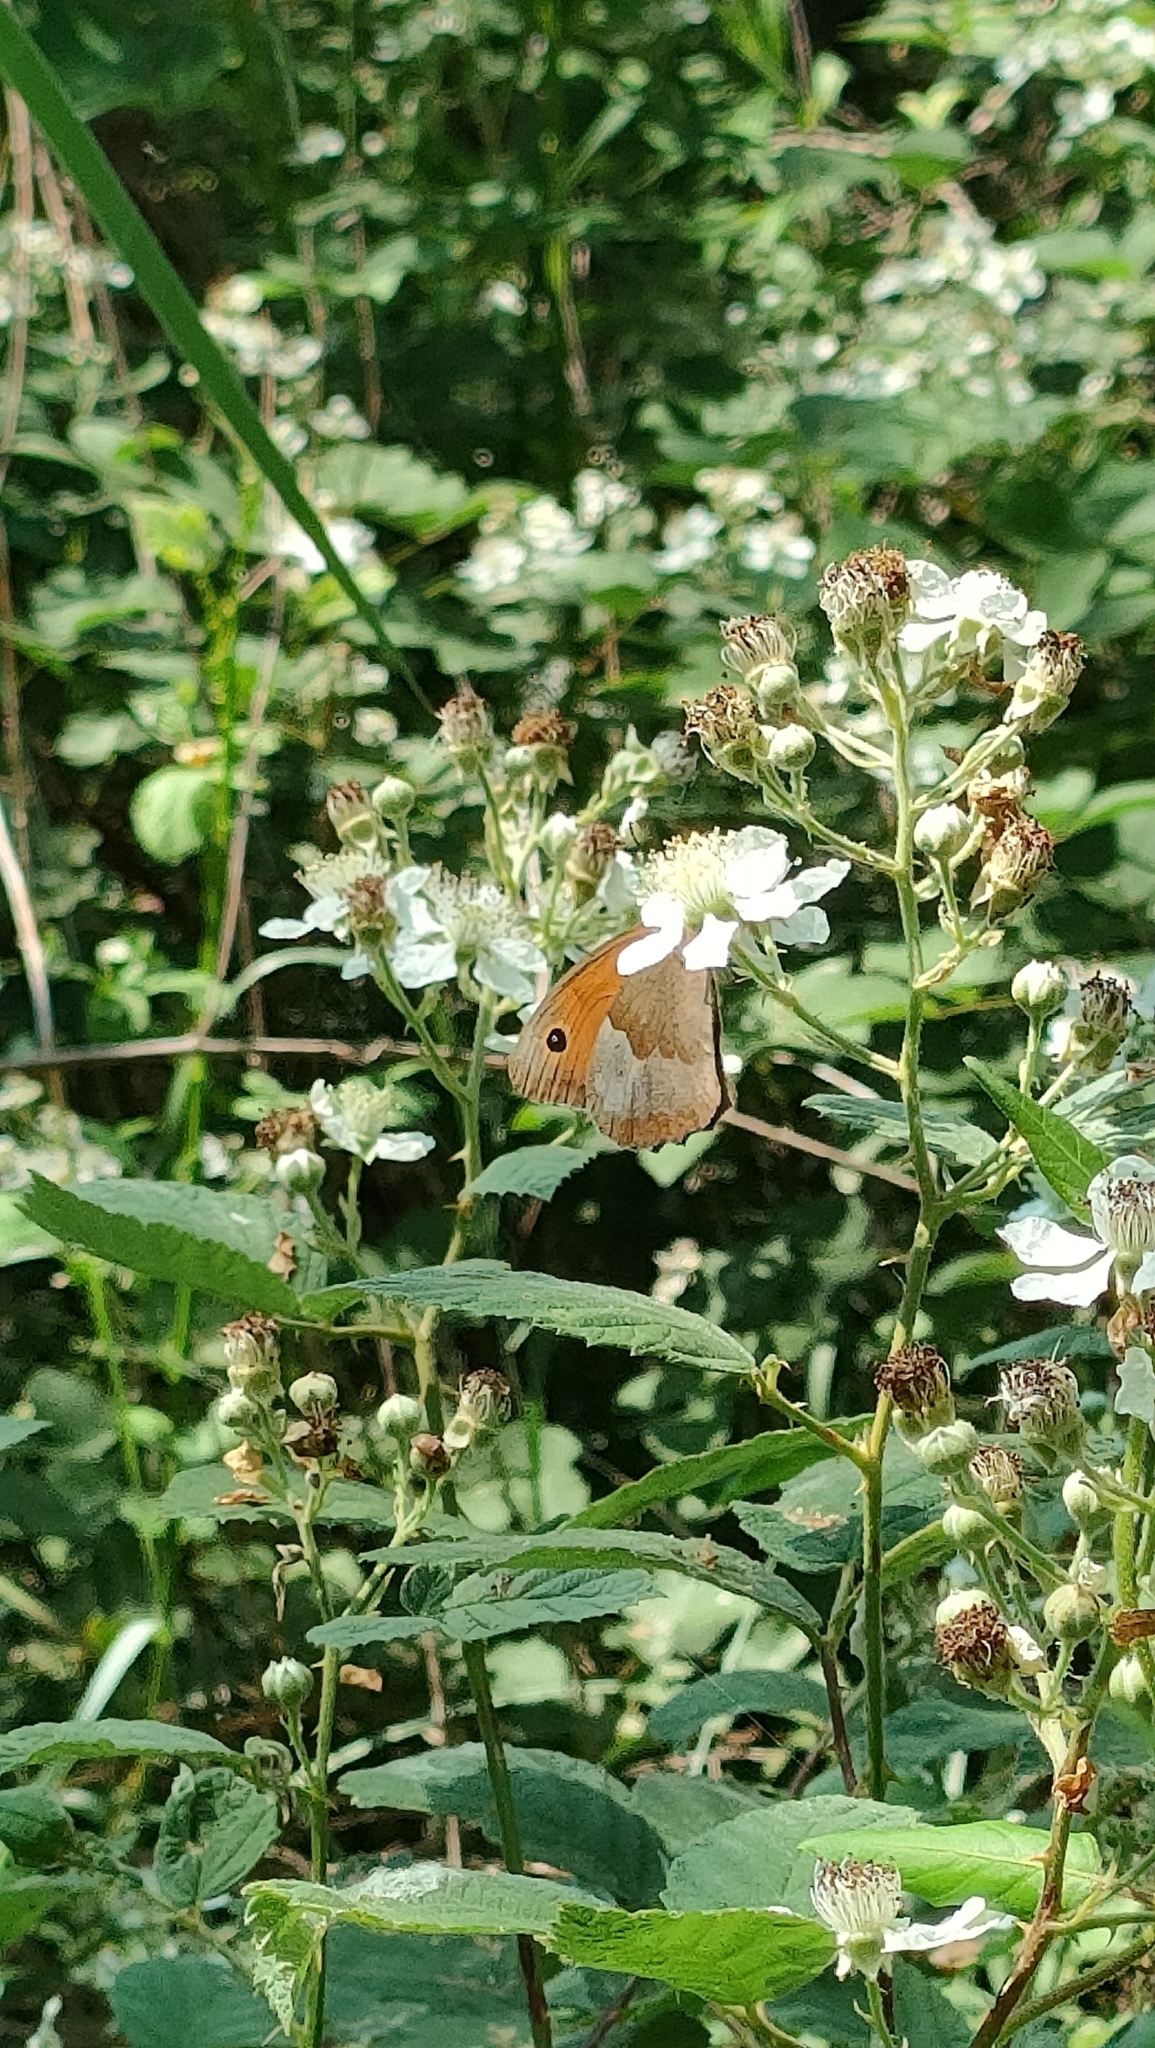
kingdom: Animalia
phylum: Arthropoda
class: Insecta
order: Lepidoptera
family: Nymphalidae
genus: Maniola
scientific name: Maniola jurtina
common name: Meadow brown
